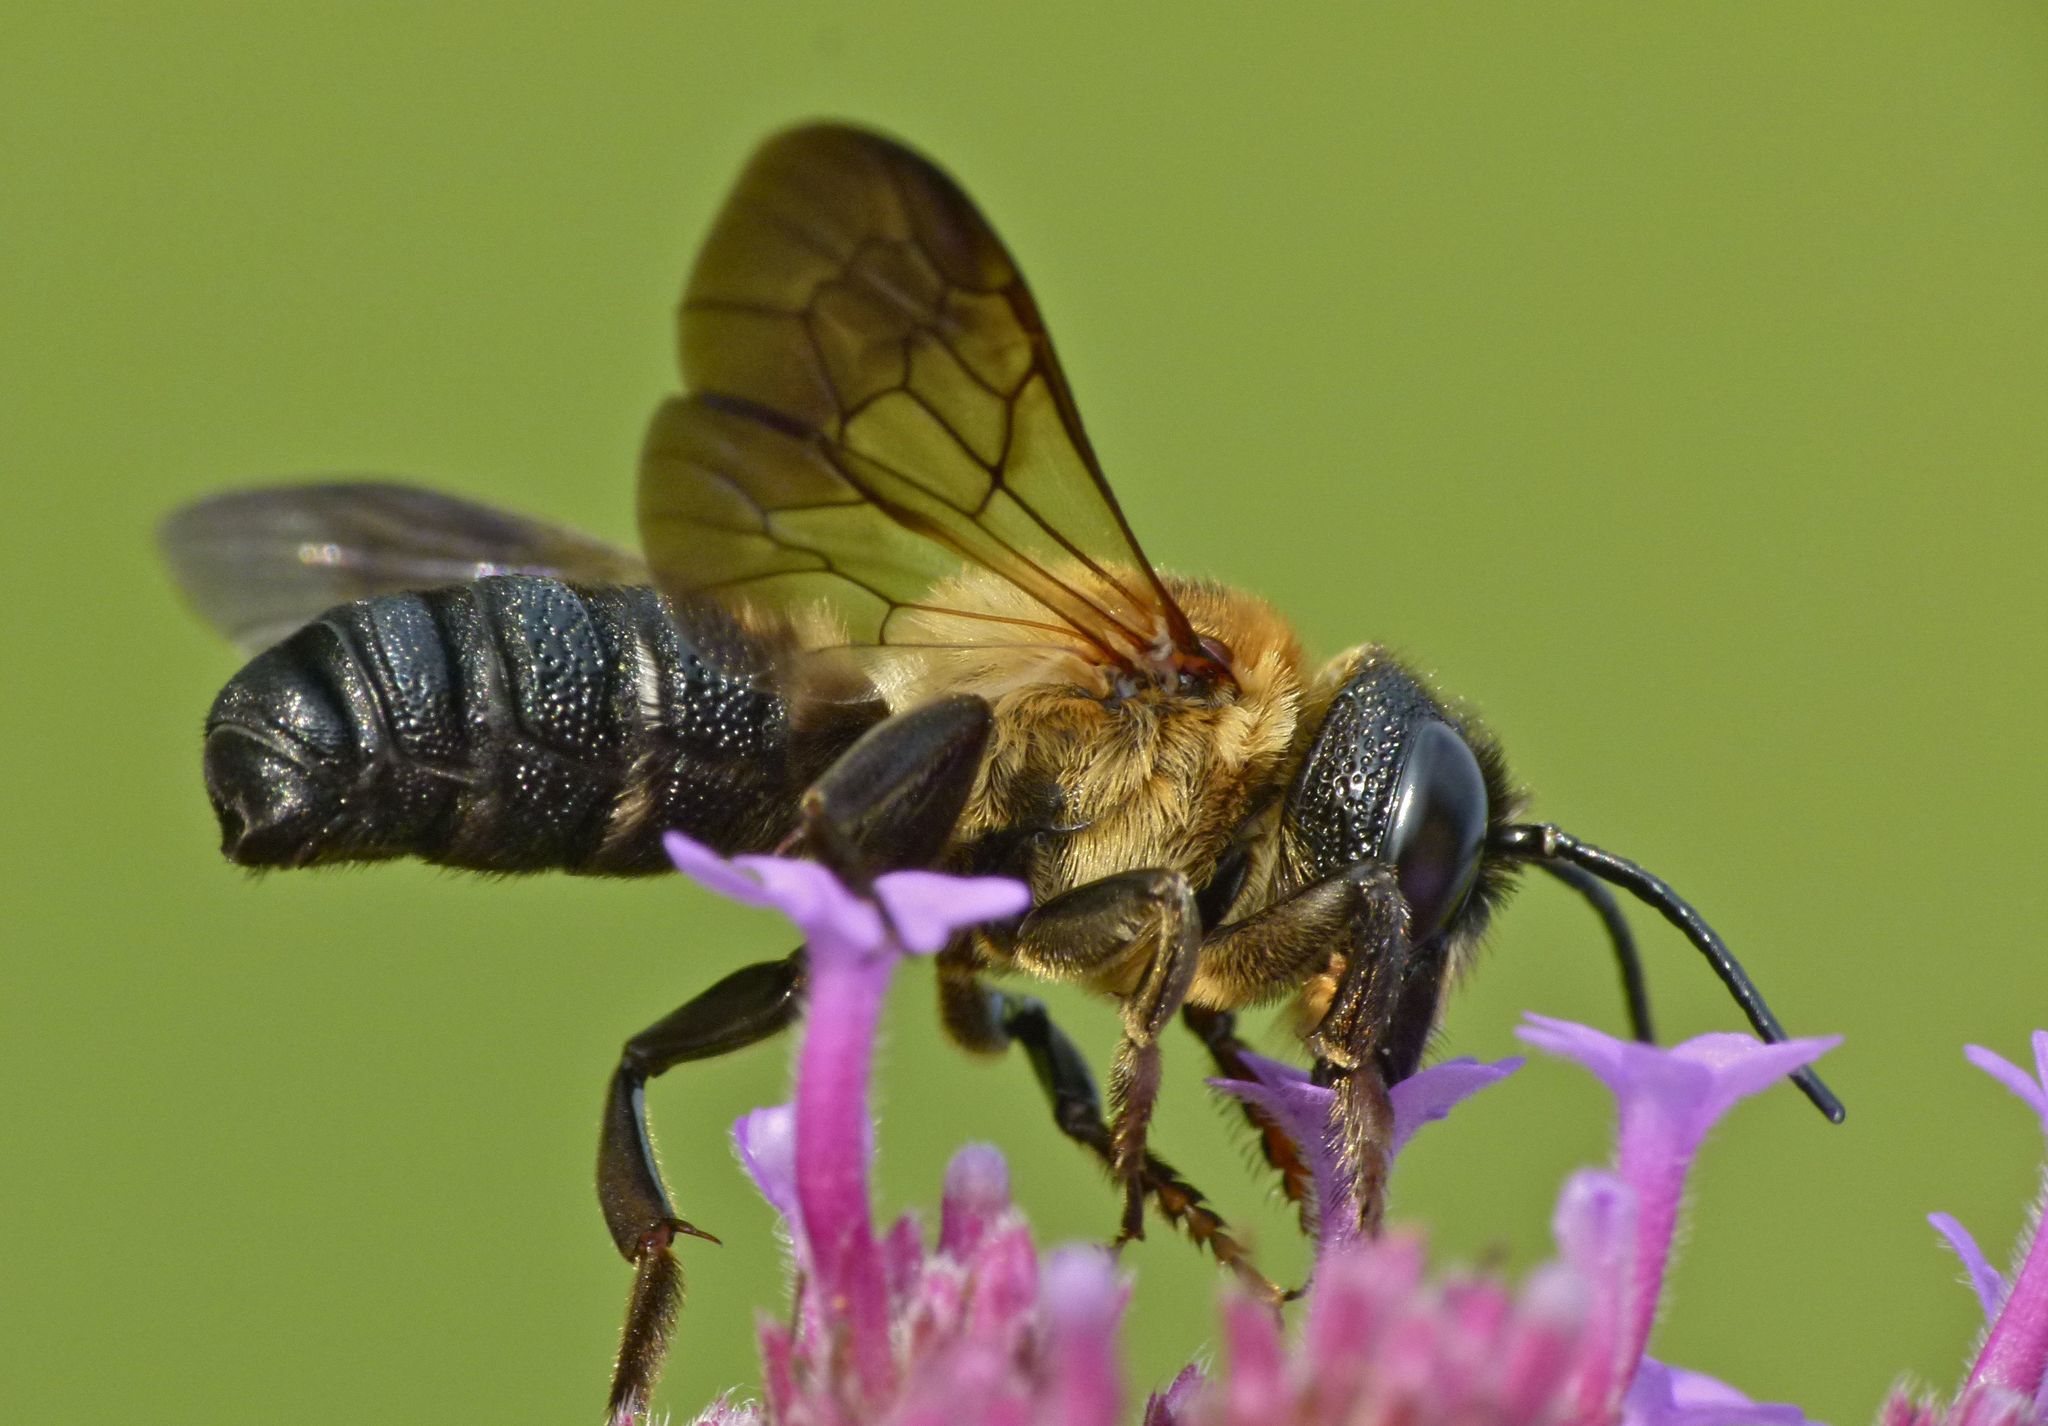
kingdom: Animalia
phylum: Arthropoda
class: Insecta
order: Hymenoptera
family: Megachilidae
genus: Megachile
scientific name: Megachile sculpturalis
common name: Sculptured resin bee
